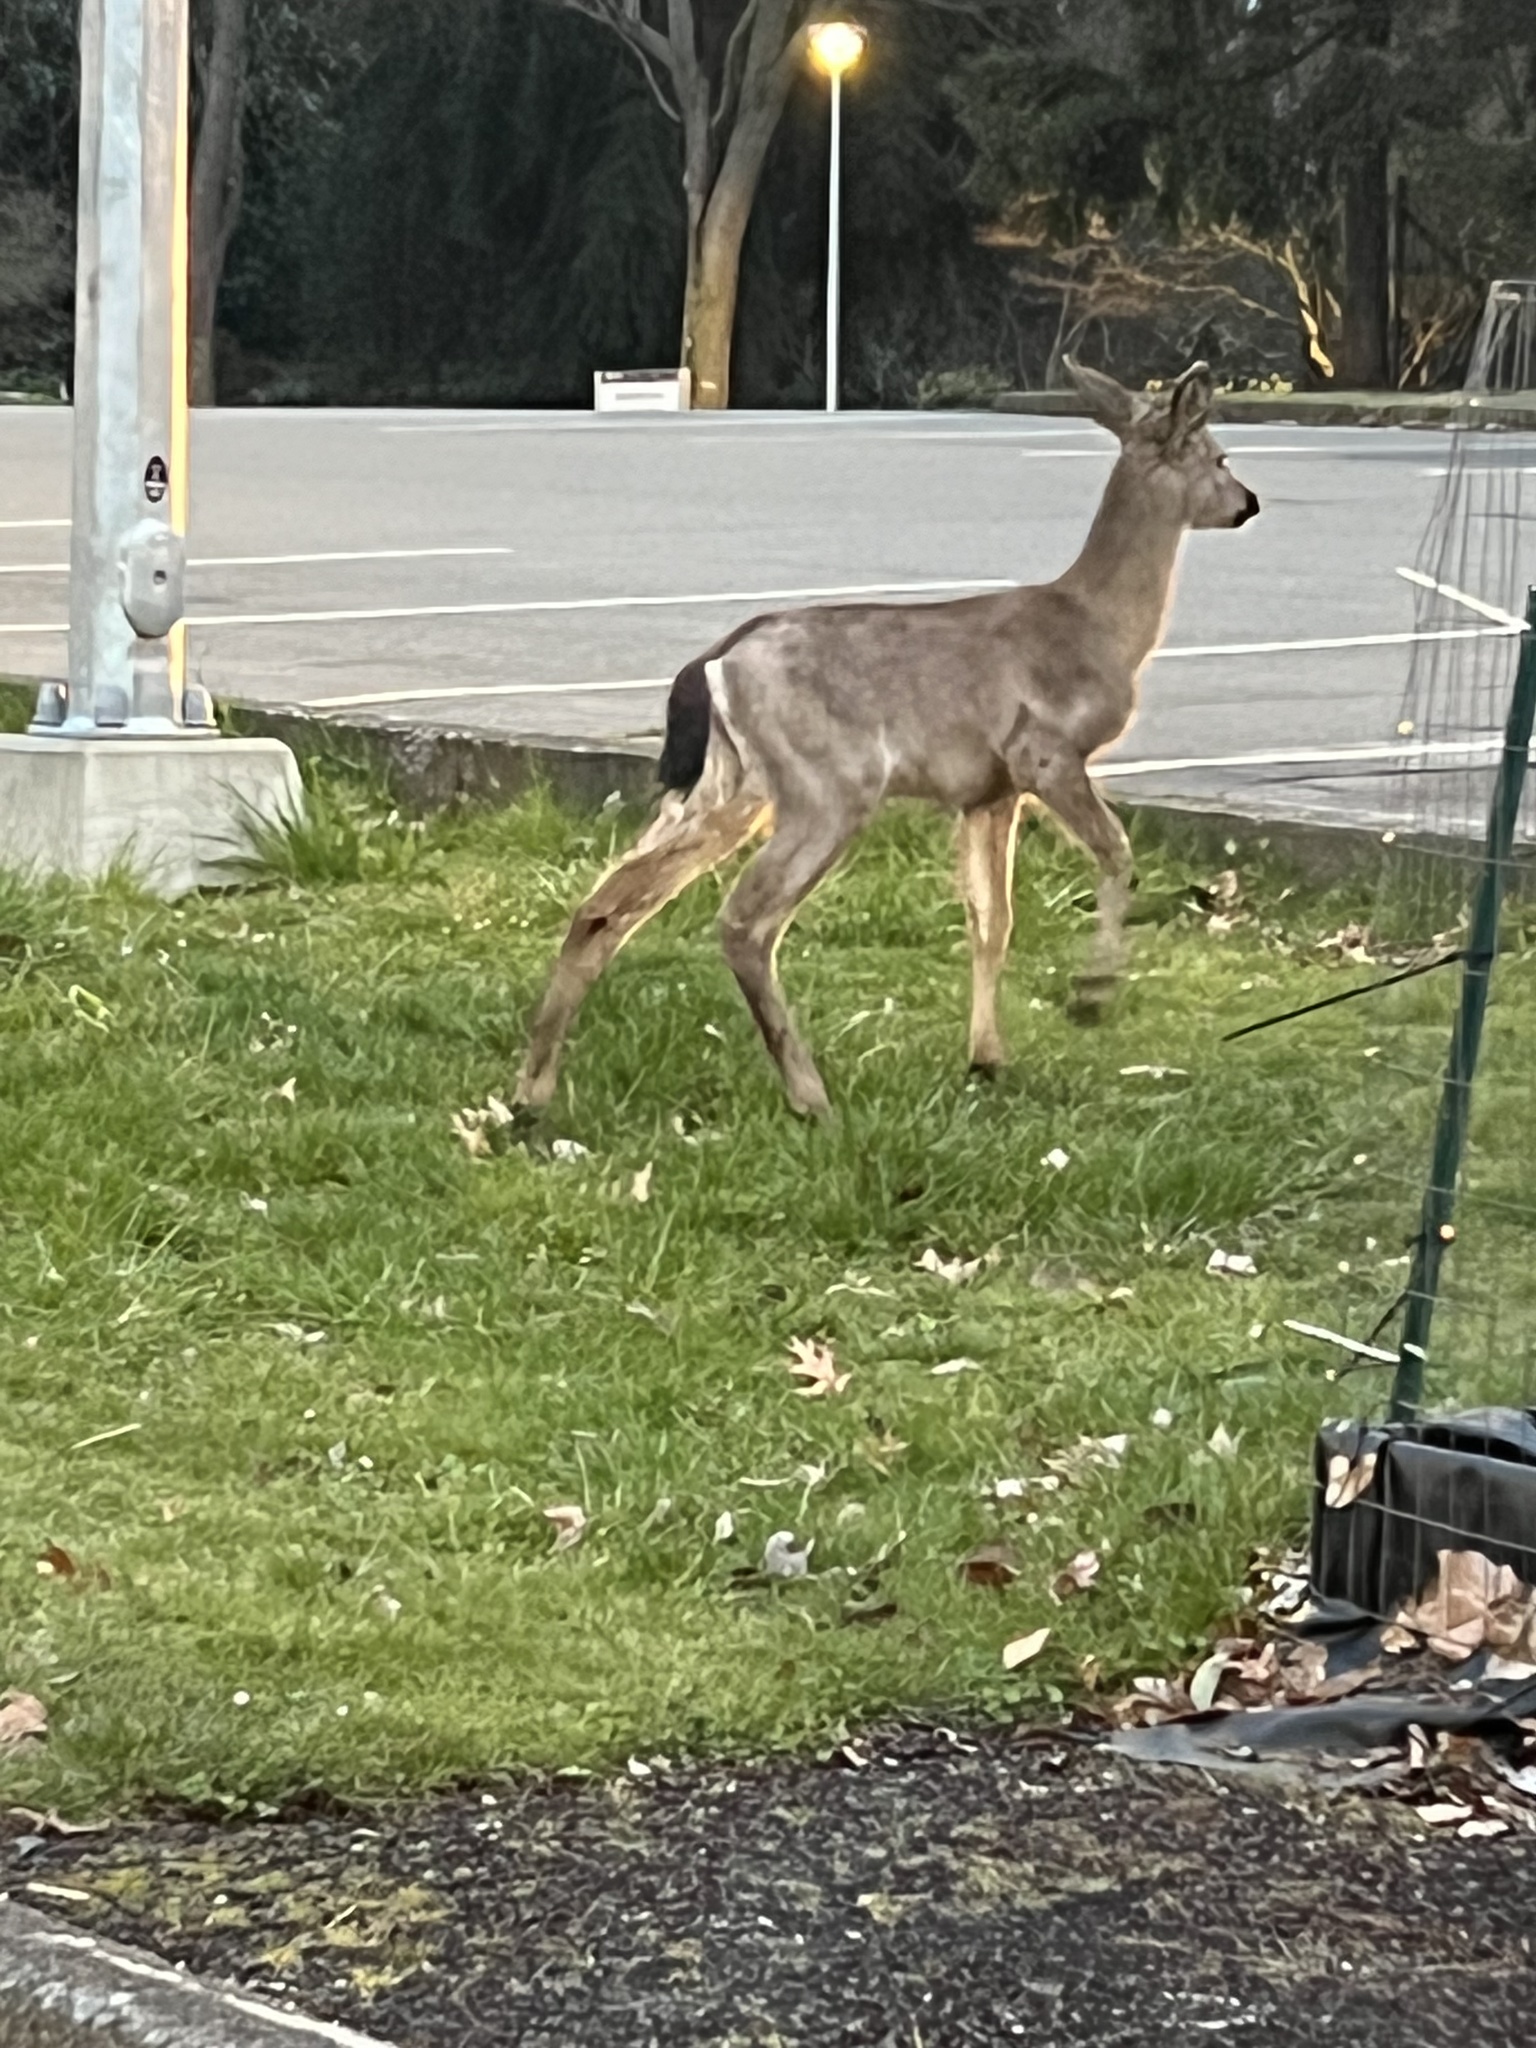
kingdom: Animalia
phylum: Chordata
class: Mammalia
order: Artiodactyla
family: Cervidae
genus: Odocoileus
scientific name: Odocoileus hemionus
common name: Mule deer
